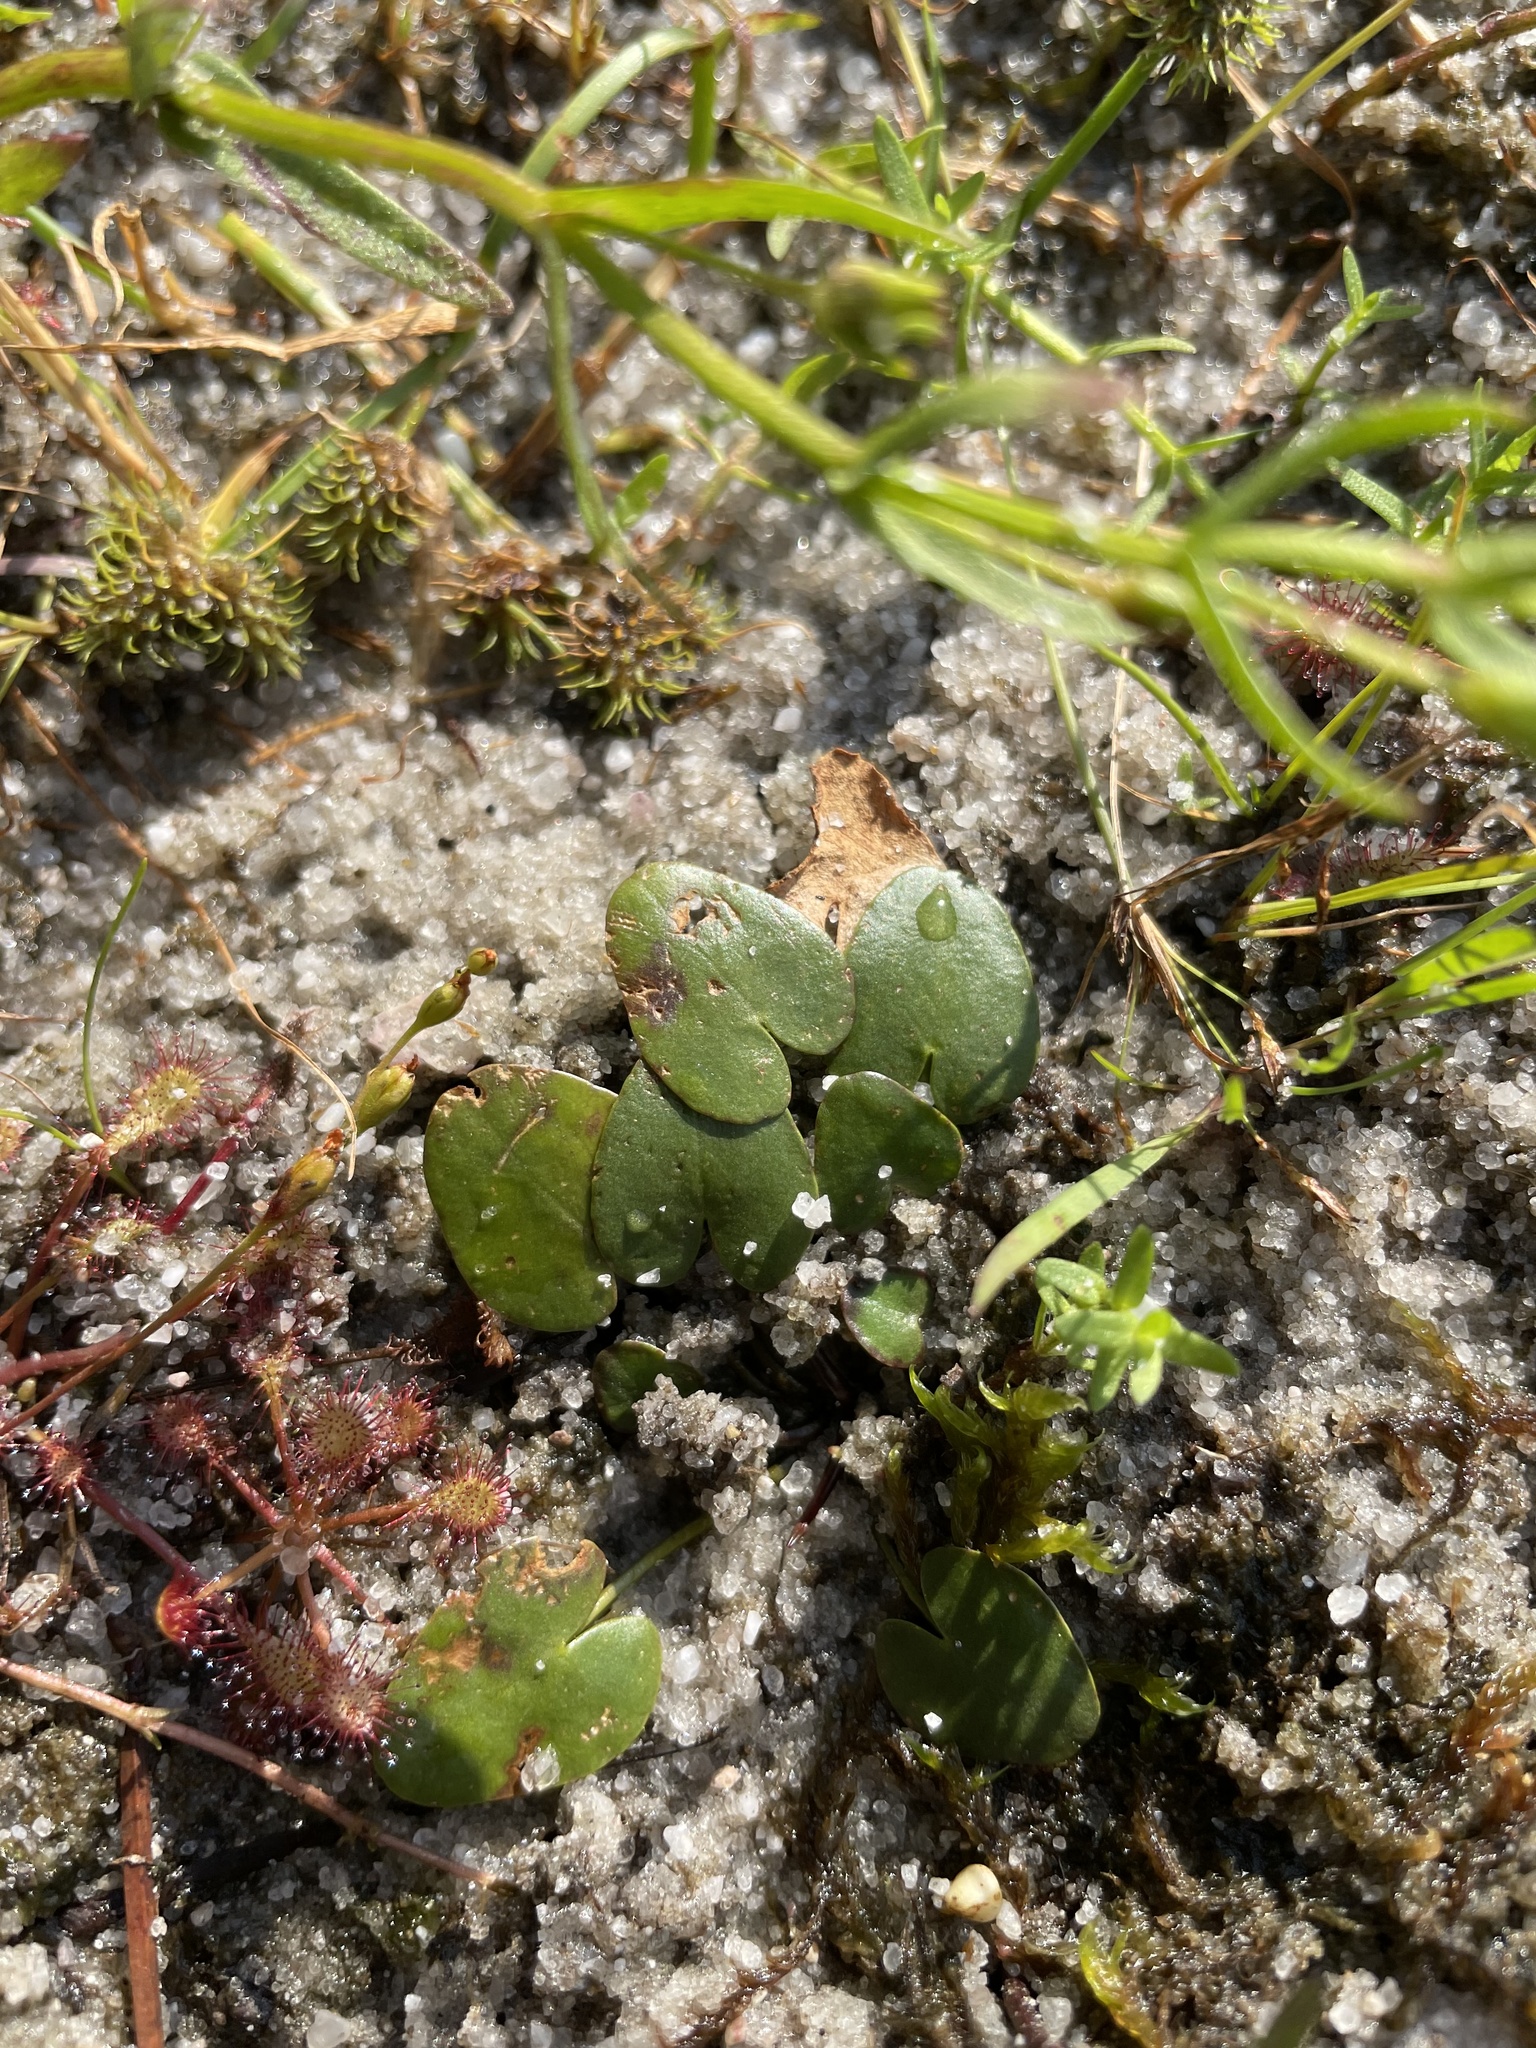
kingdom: Plantae
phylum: Tracheophyta
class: Magnoliopsida
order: Asterales
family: Menyanthaceae
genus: Nymphoides
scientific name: Nymphoides cordata
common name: Eight-angled floatingheart
